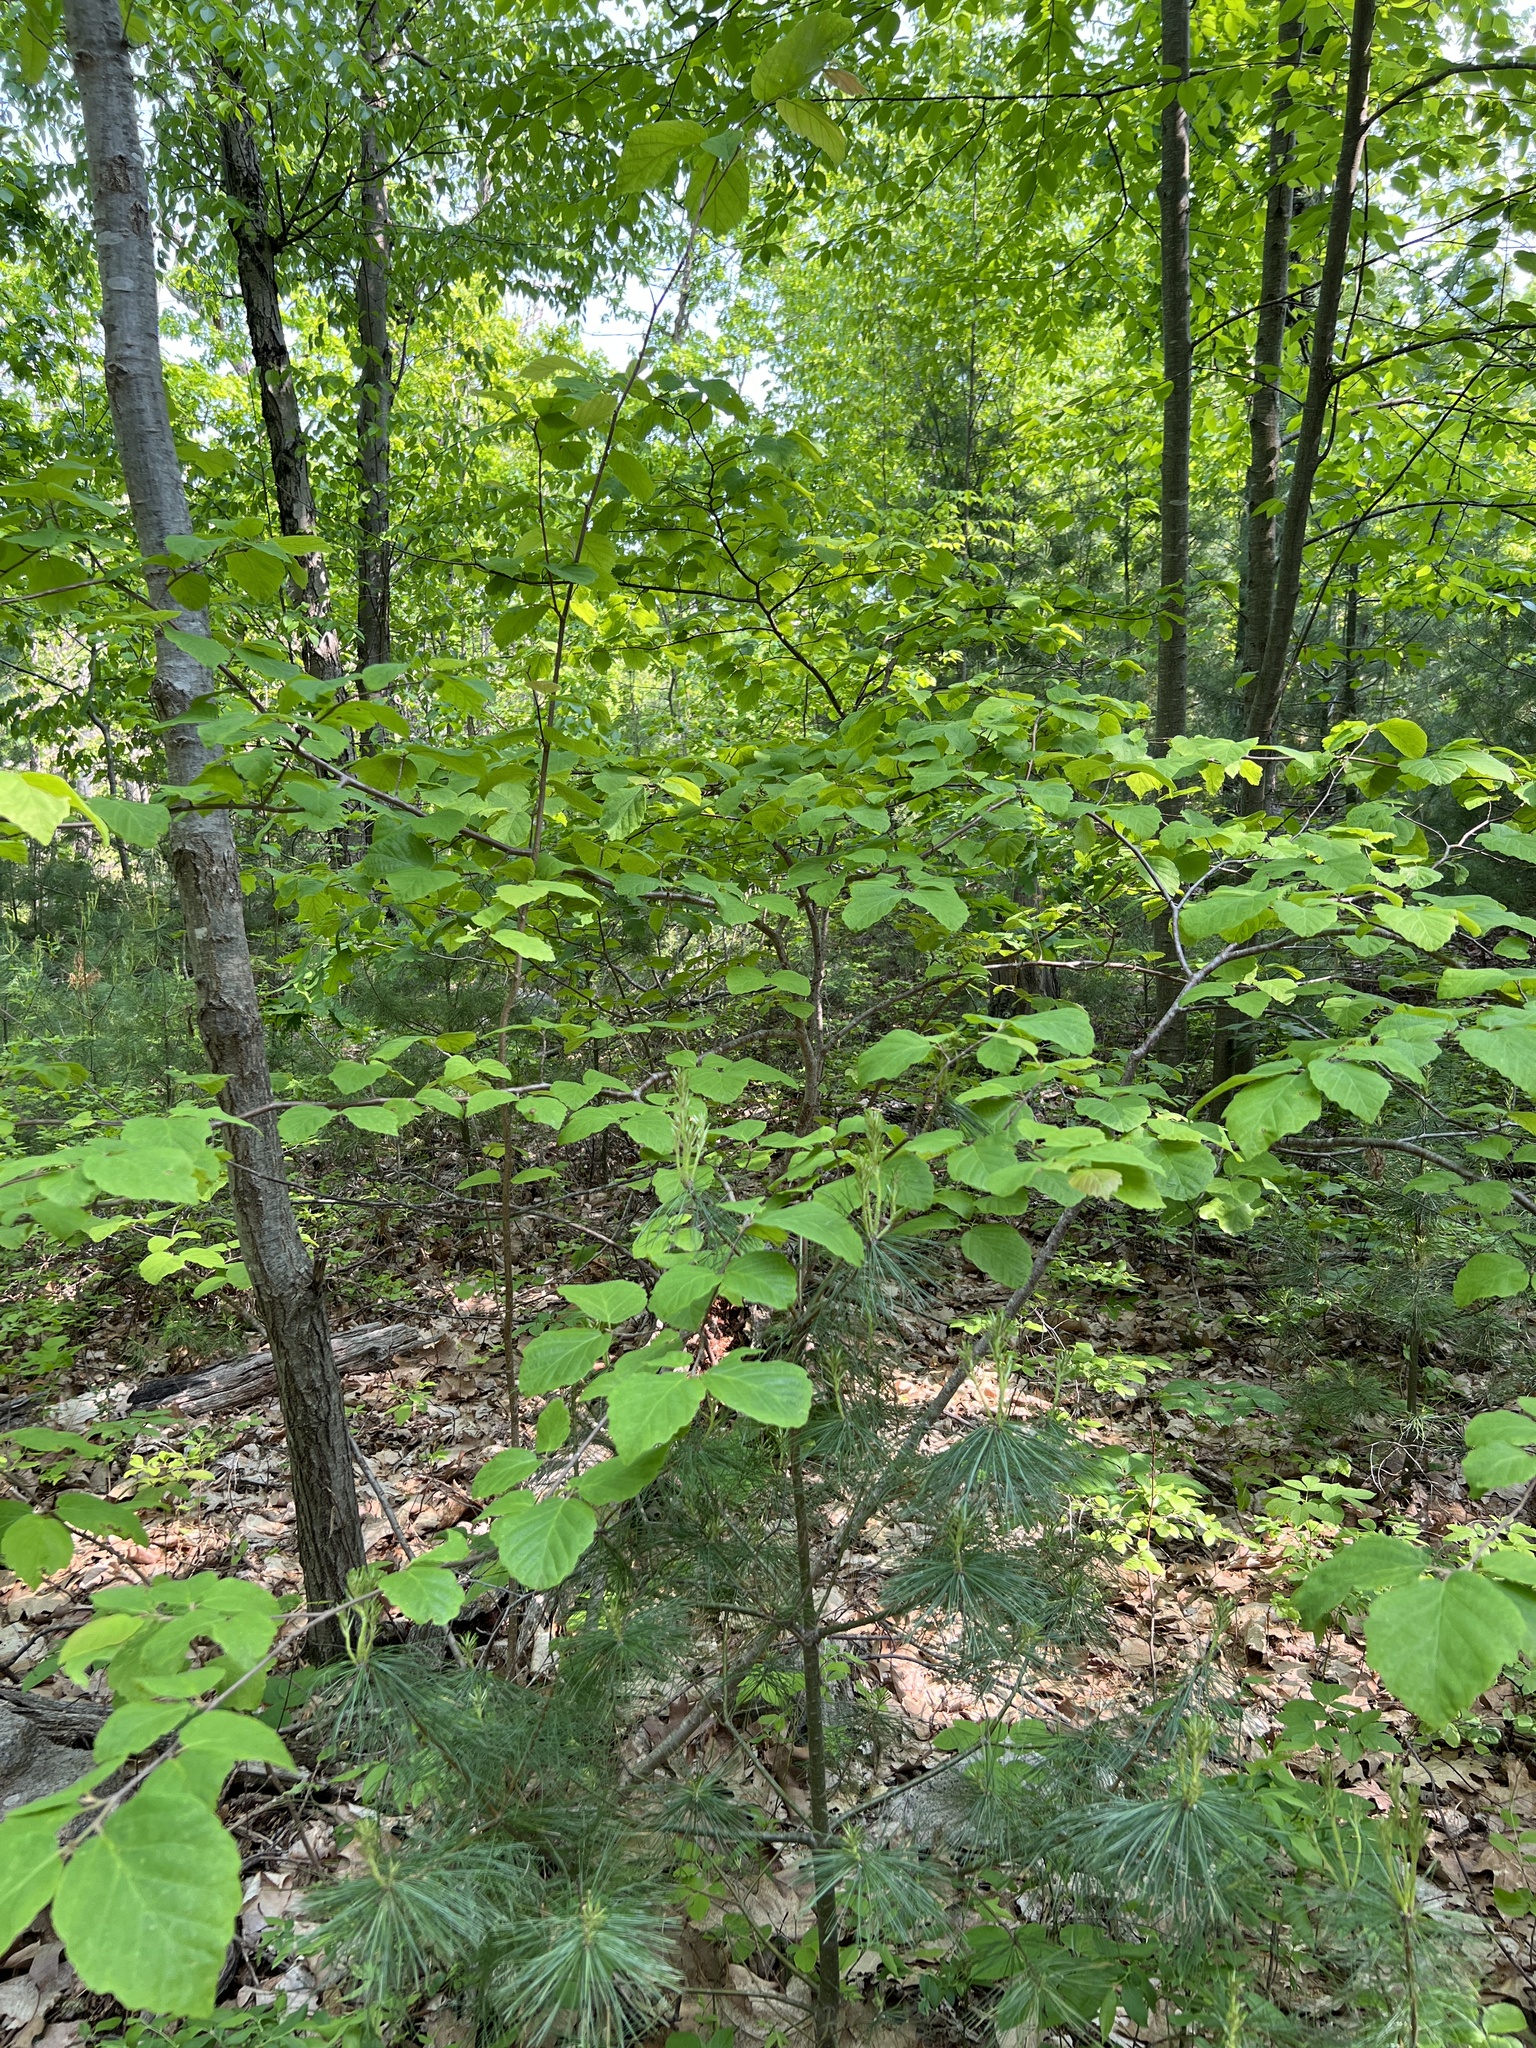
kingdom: Plantae
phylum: Tracheophyta
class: Magnoliopsida
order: Saxifragales
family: Hamamelidaceae
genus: Hamamelis
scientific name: Hamamelis virginiana
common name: Witch-hazel
